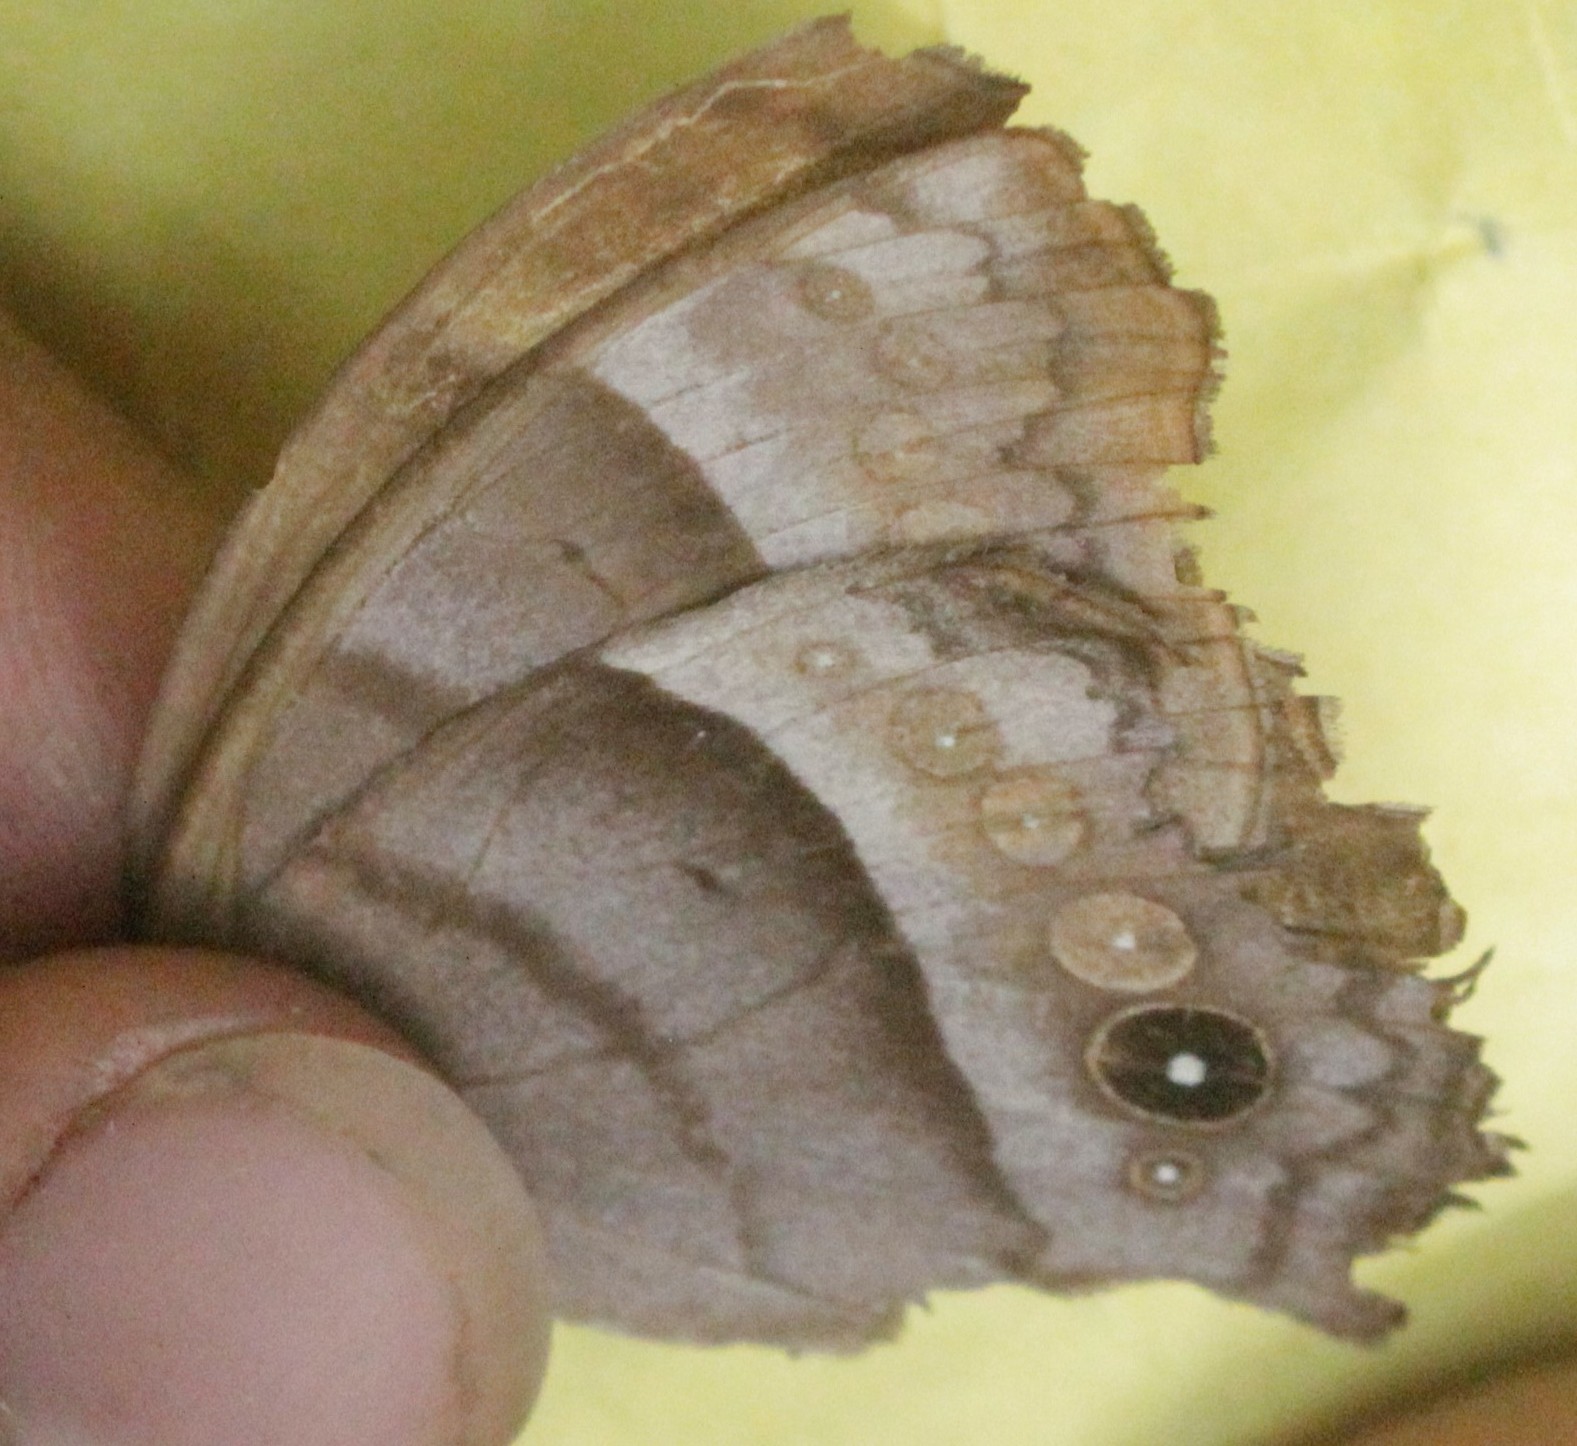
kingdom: Animalia
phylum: Arthropoda
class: Insecta
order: Lepidoptera
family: Nymphalidae
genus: Taygetis
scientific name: Taygetis inconspicua
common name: Inconspicuous satyr
